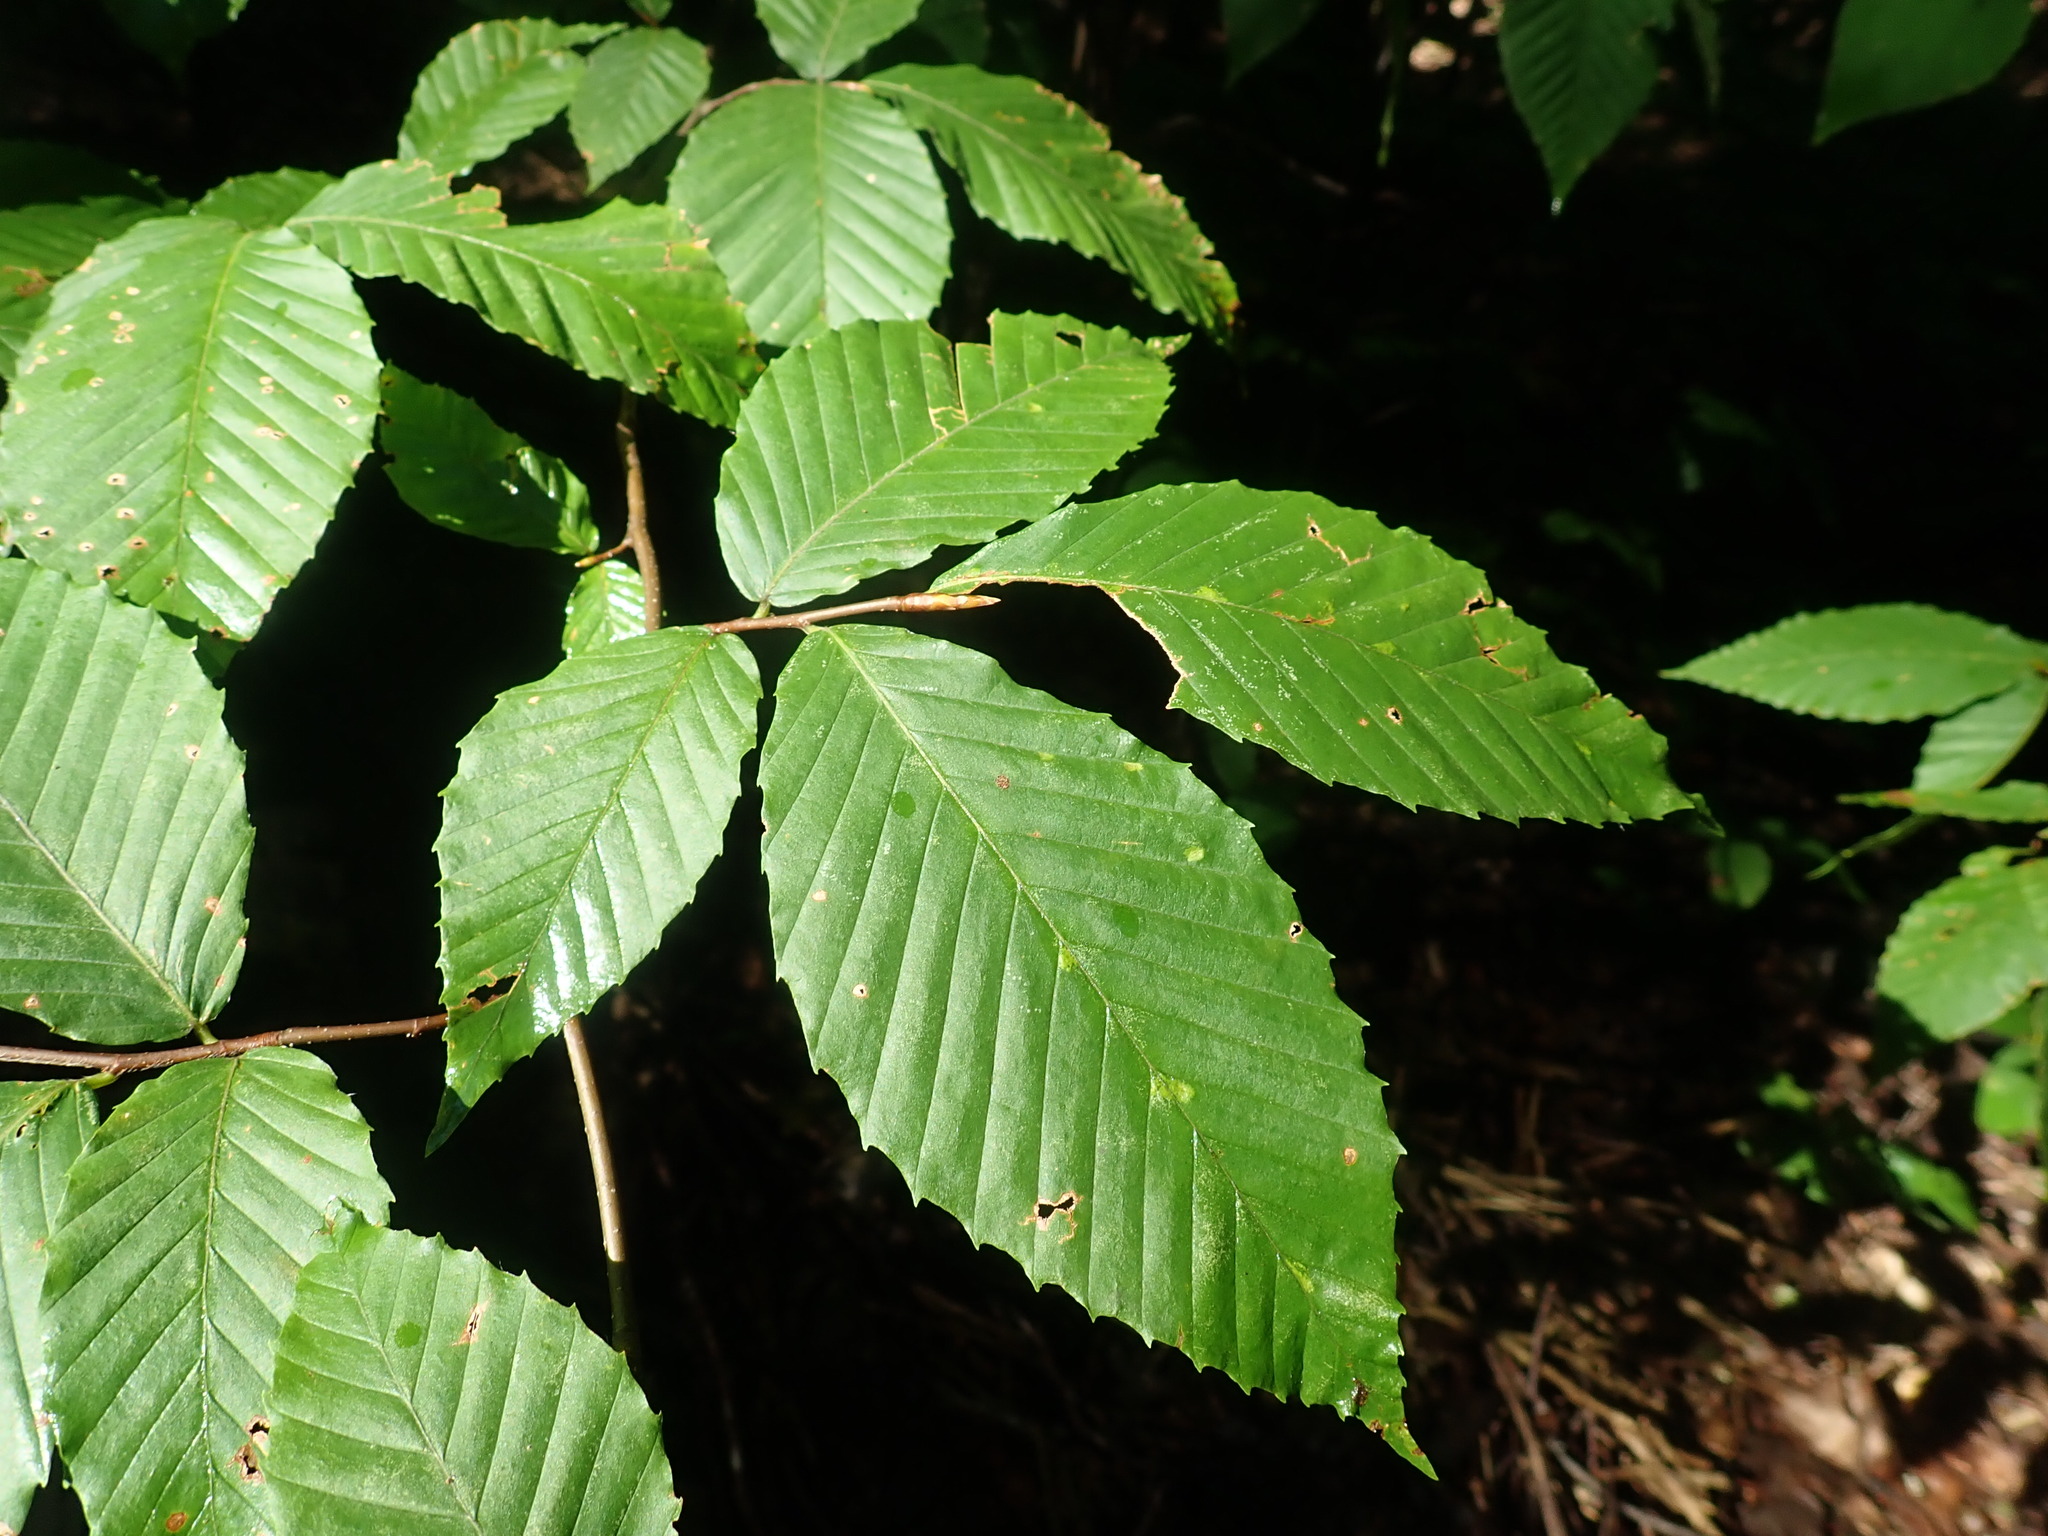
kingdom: Plantae
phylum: Tracheophyta
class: Magnoliopsida
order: Fagales
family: Fagaceae
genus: Fagus
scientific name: Fagus grandifolia
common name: American beech
